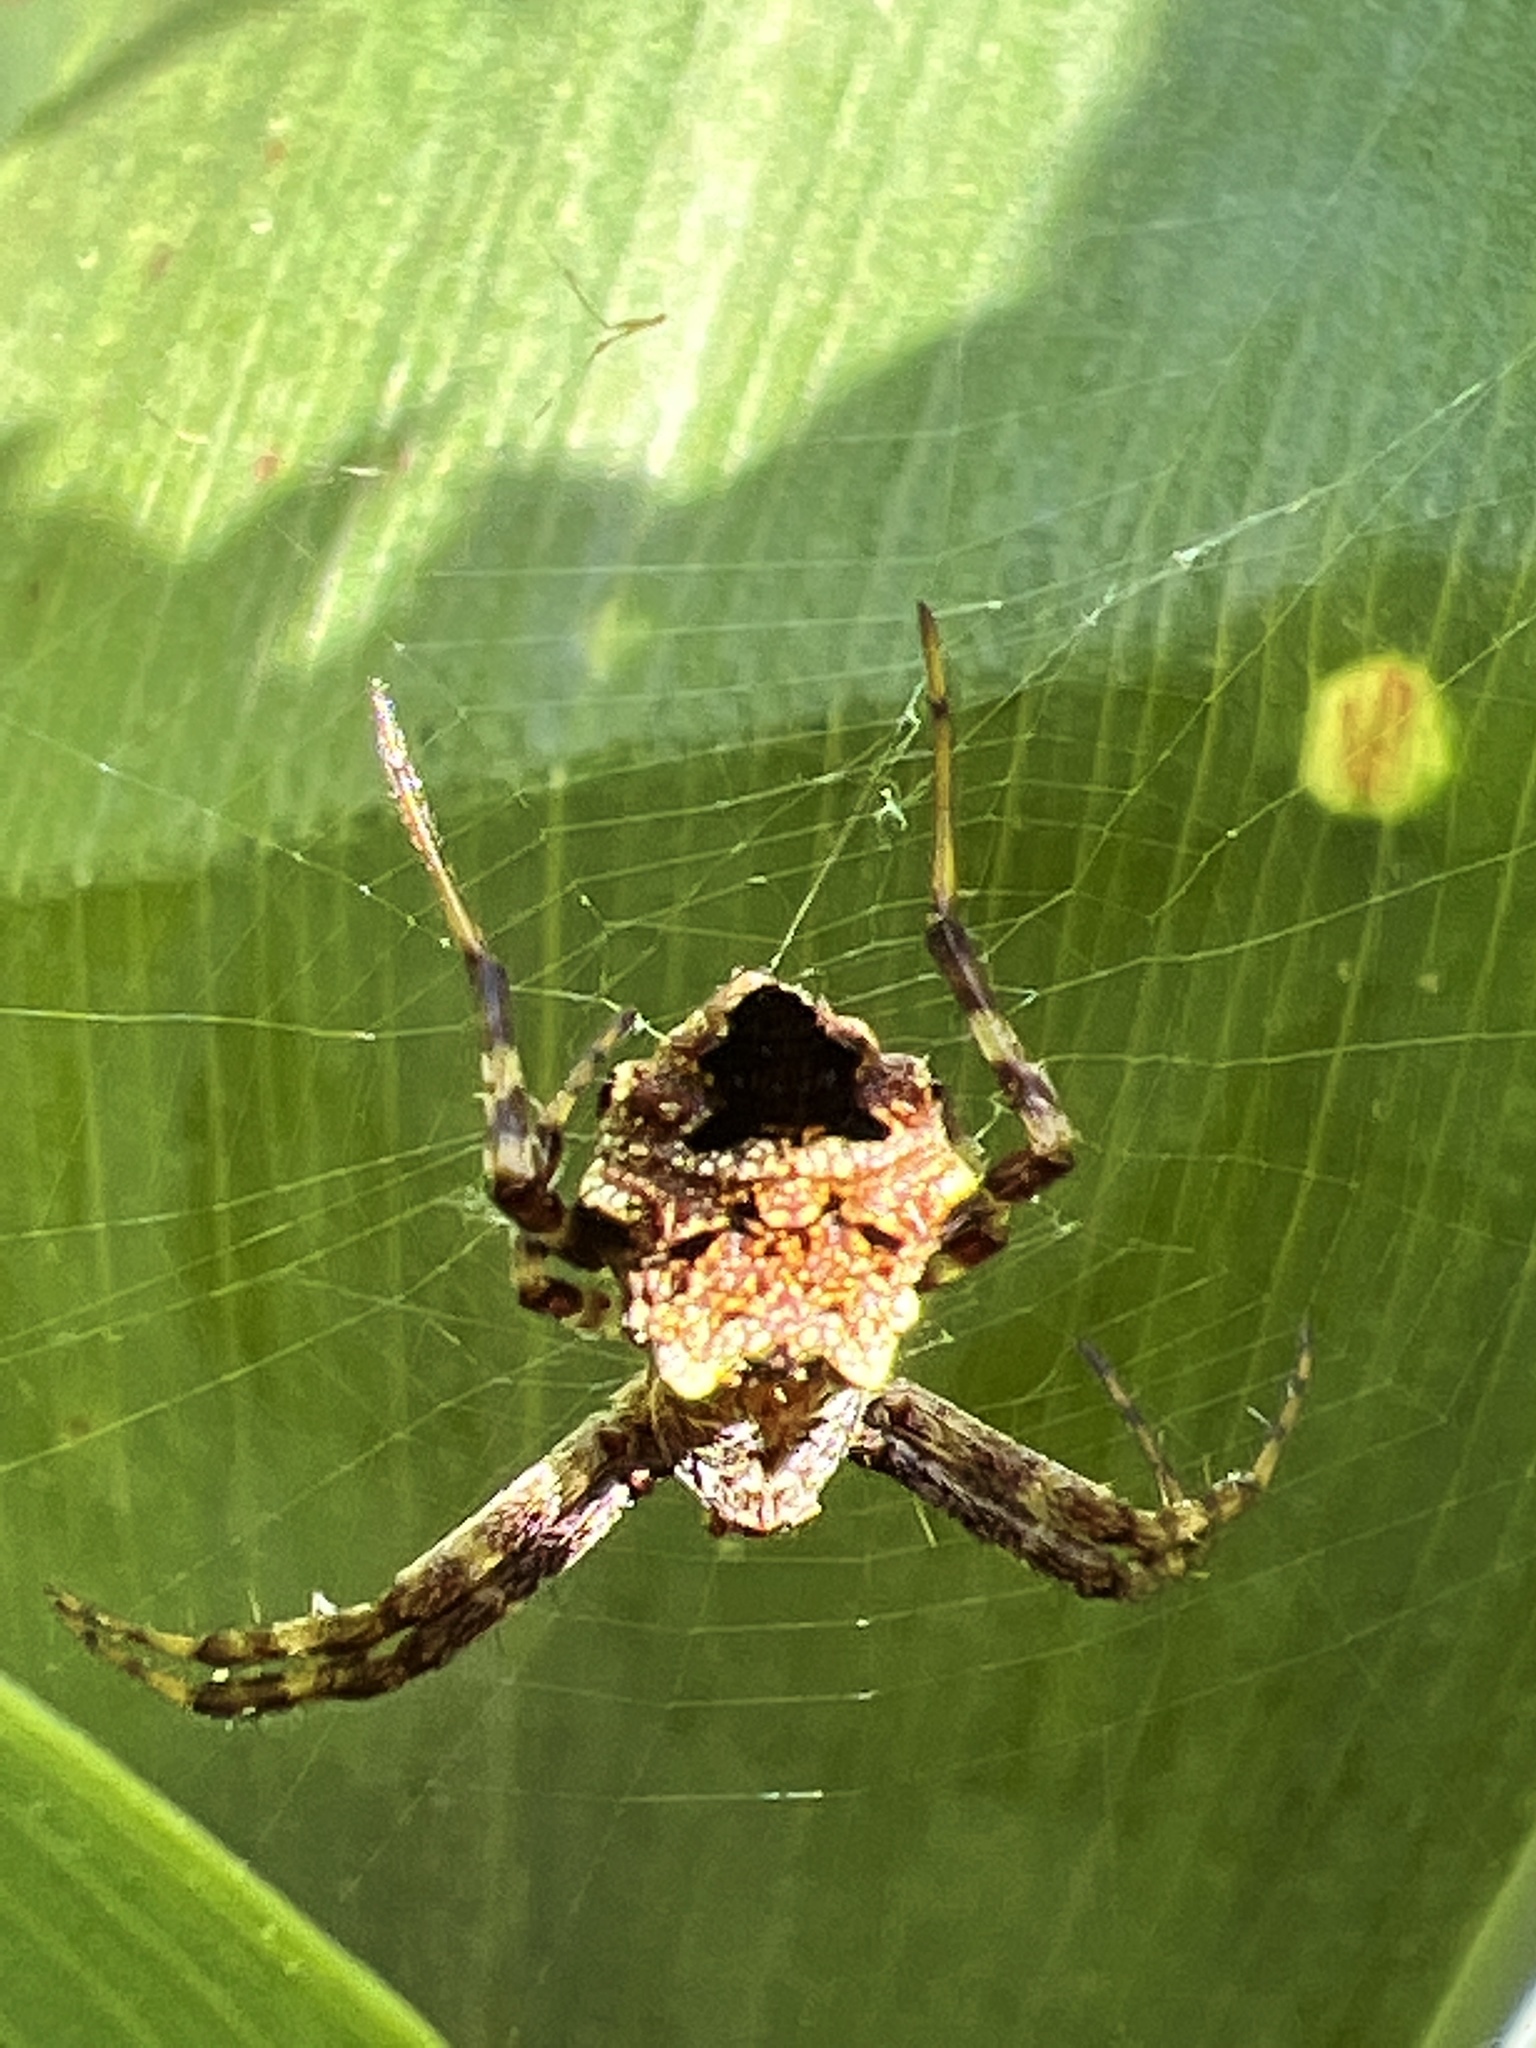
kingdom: Animalia
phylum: Arthropoda
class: Arachnida
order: Araneae
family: Araneidae
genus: Gea
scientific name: Gea heptagon
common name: Orb weavers
